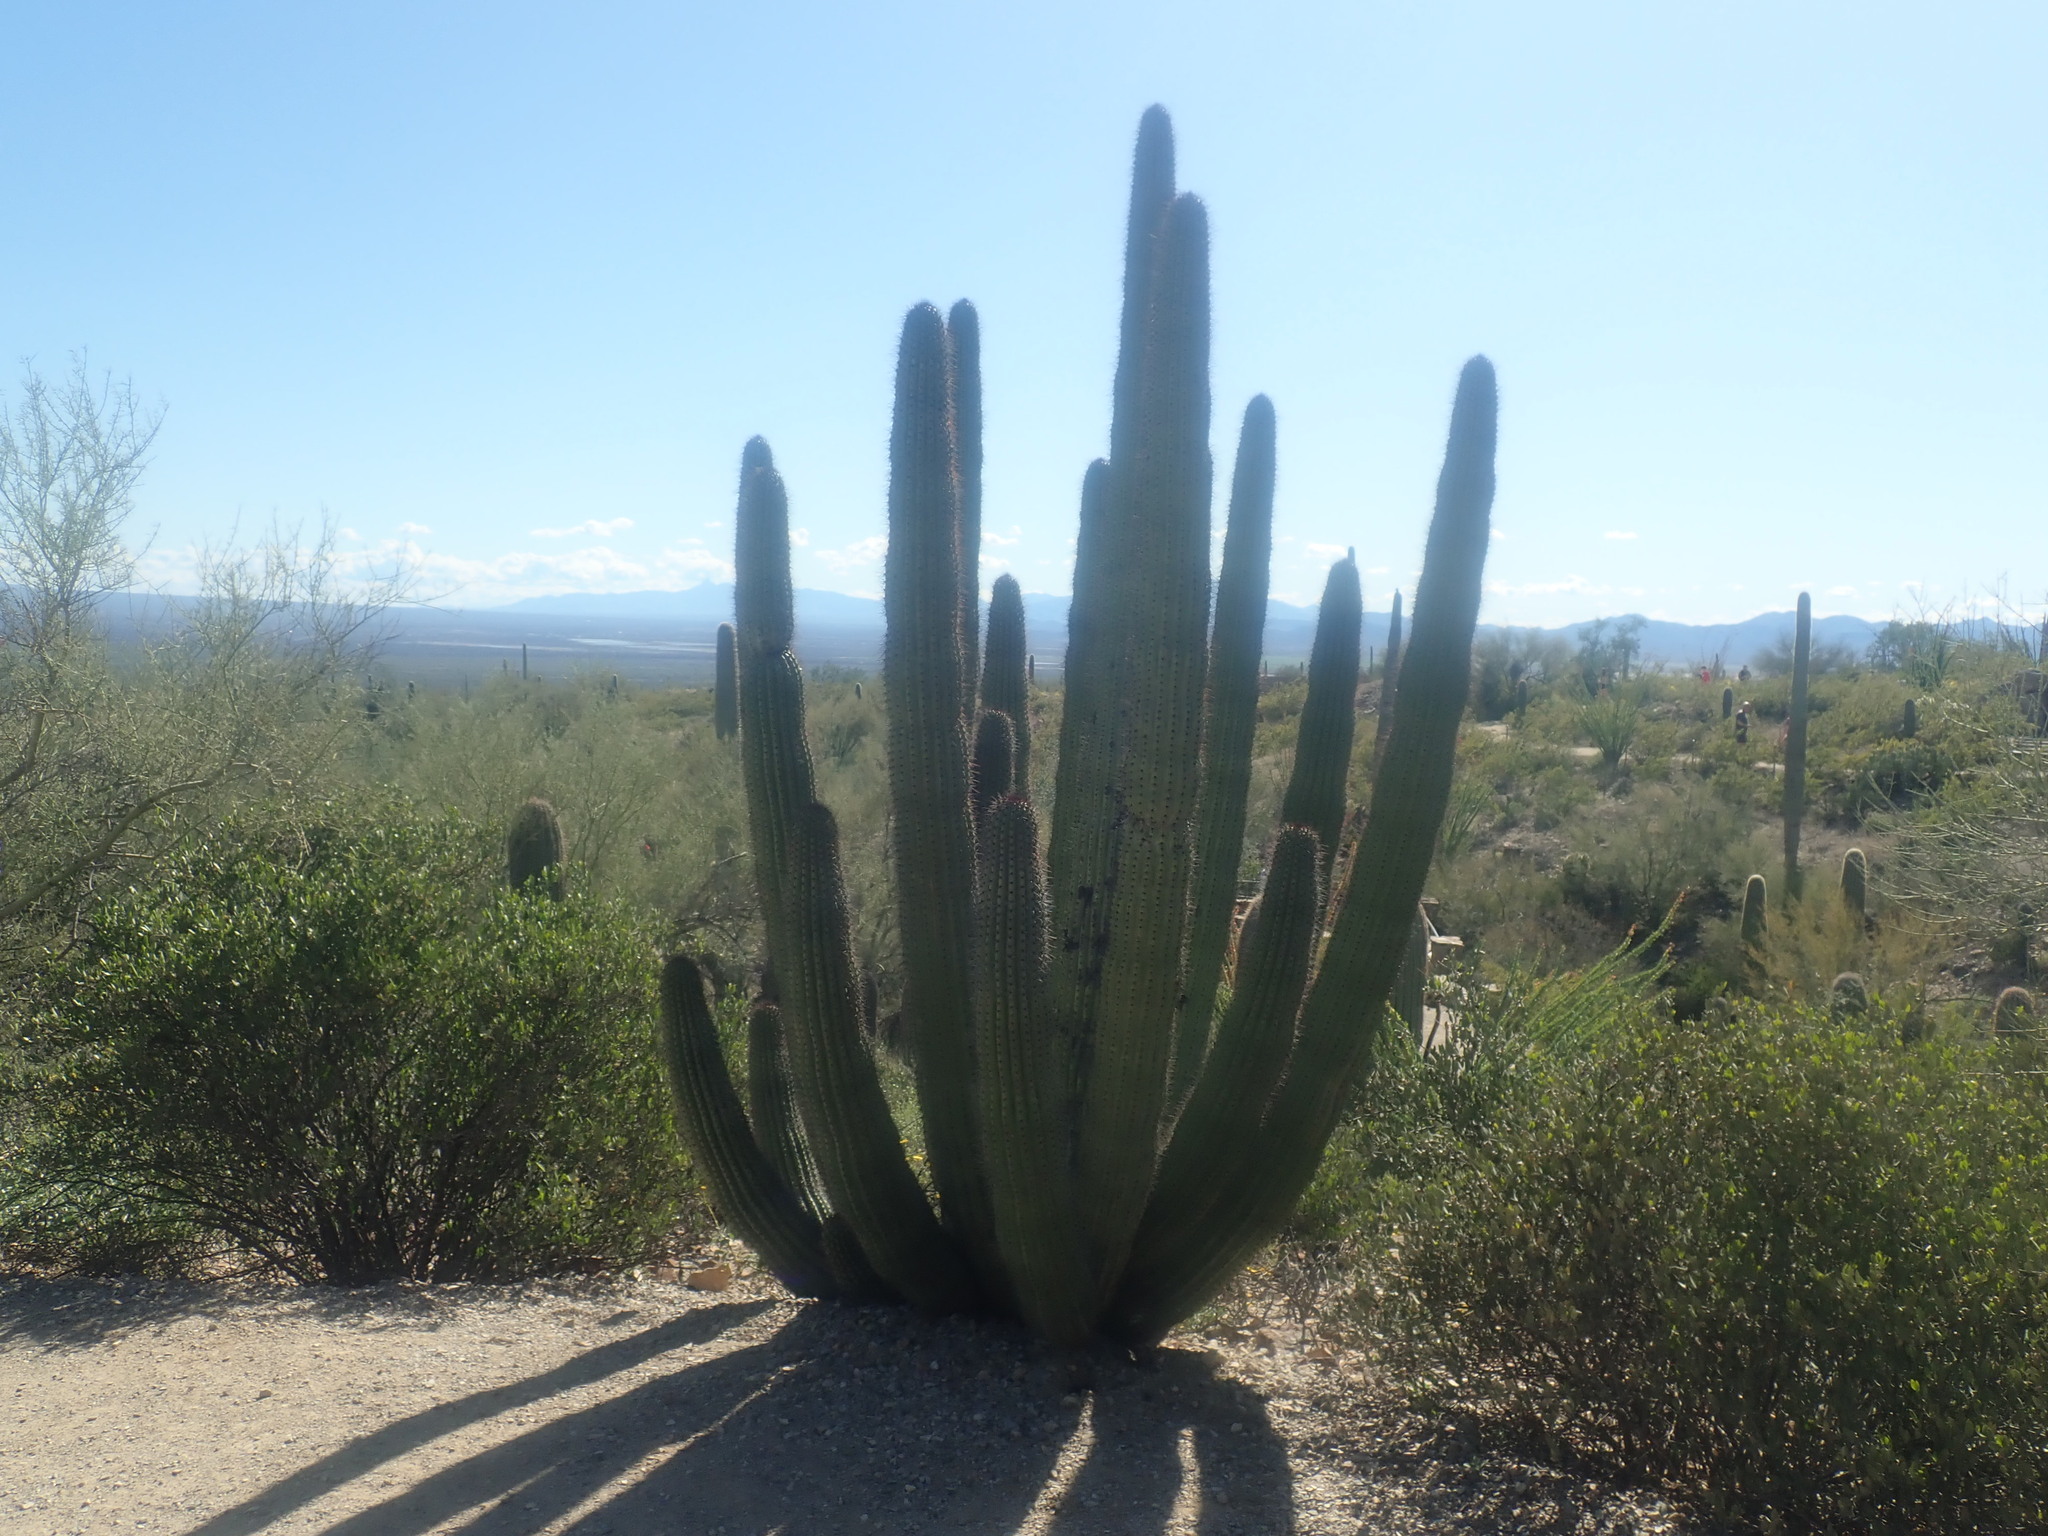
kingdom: Plantae
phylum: Tracheophyta
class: Magnoliopsida
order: Caryophyllales
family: Cactaceae
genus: Stenocereus
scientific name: Stenocereus thurberi
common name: Organ pipe cactus
